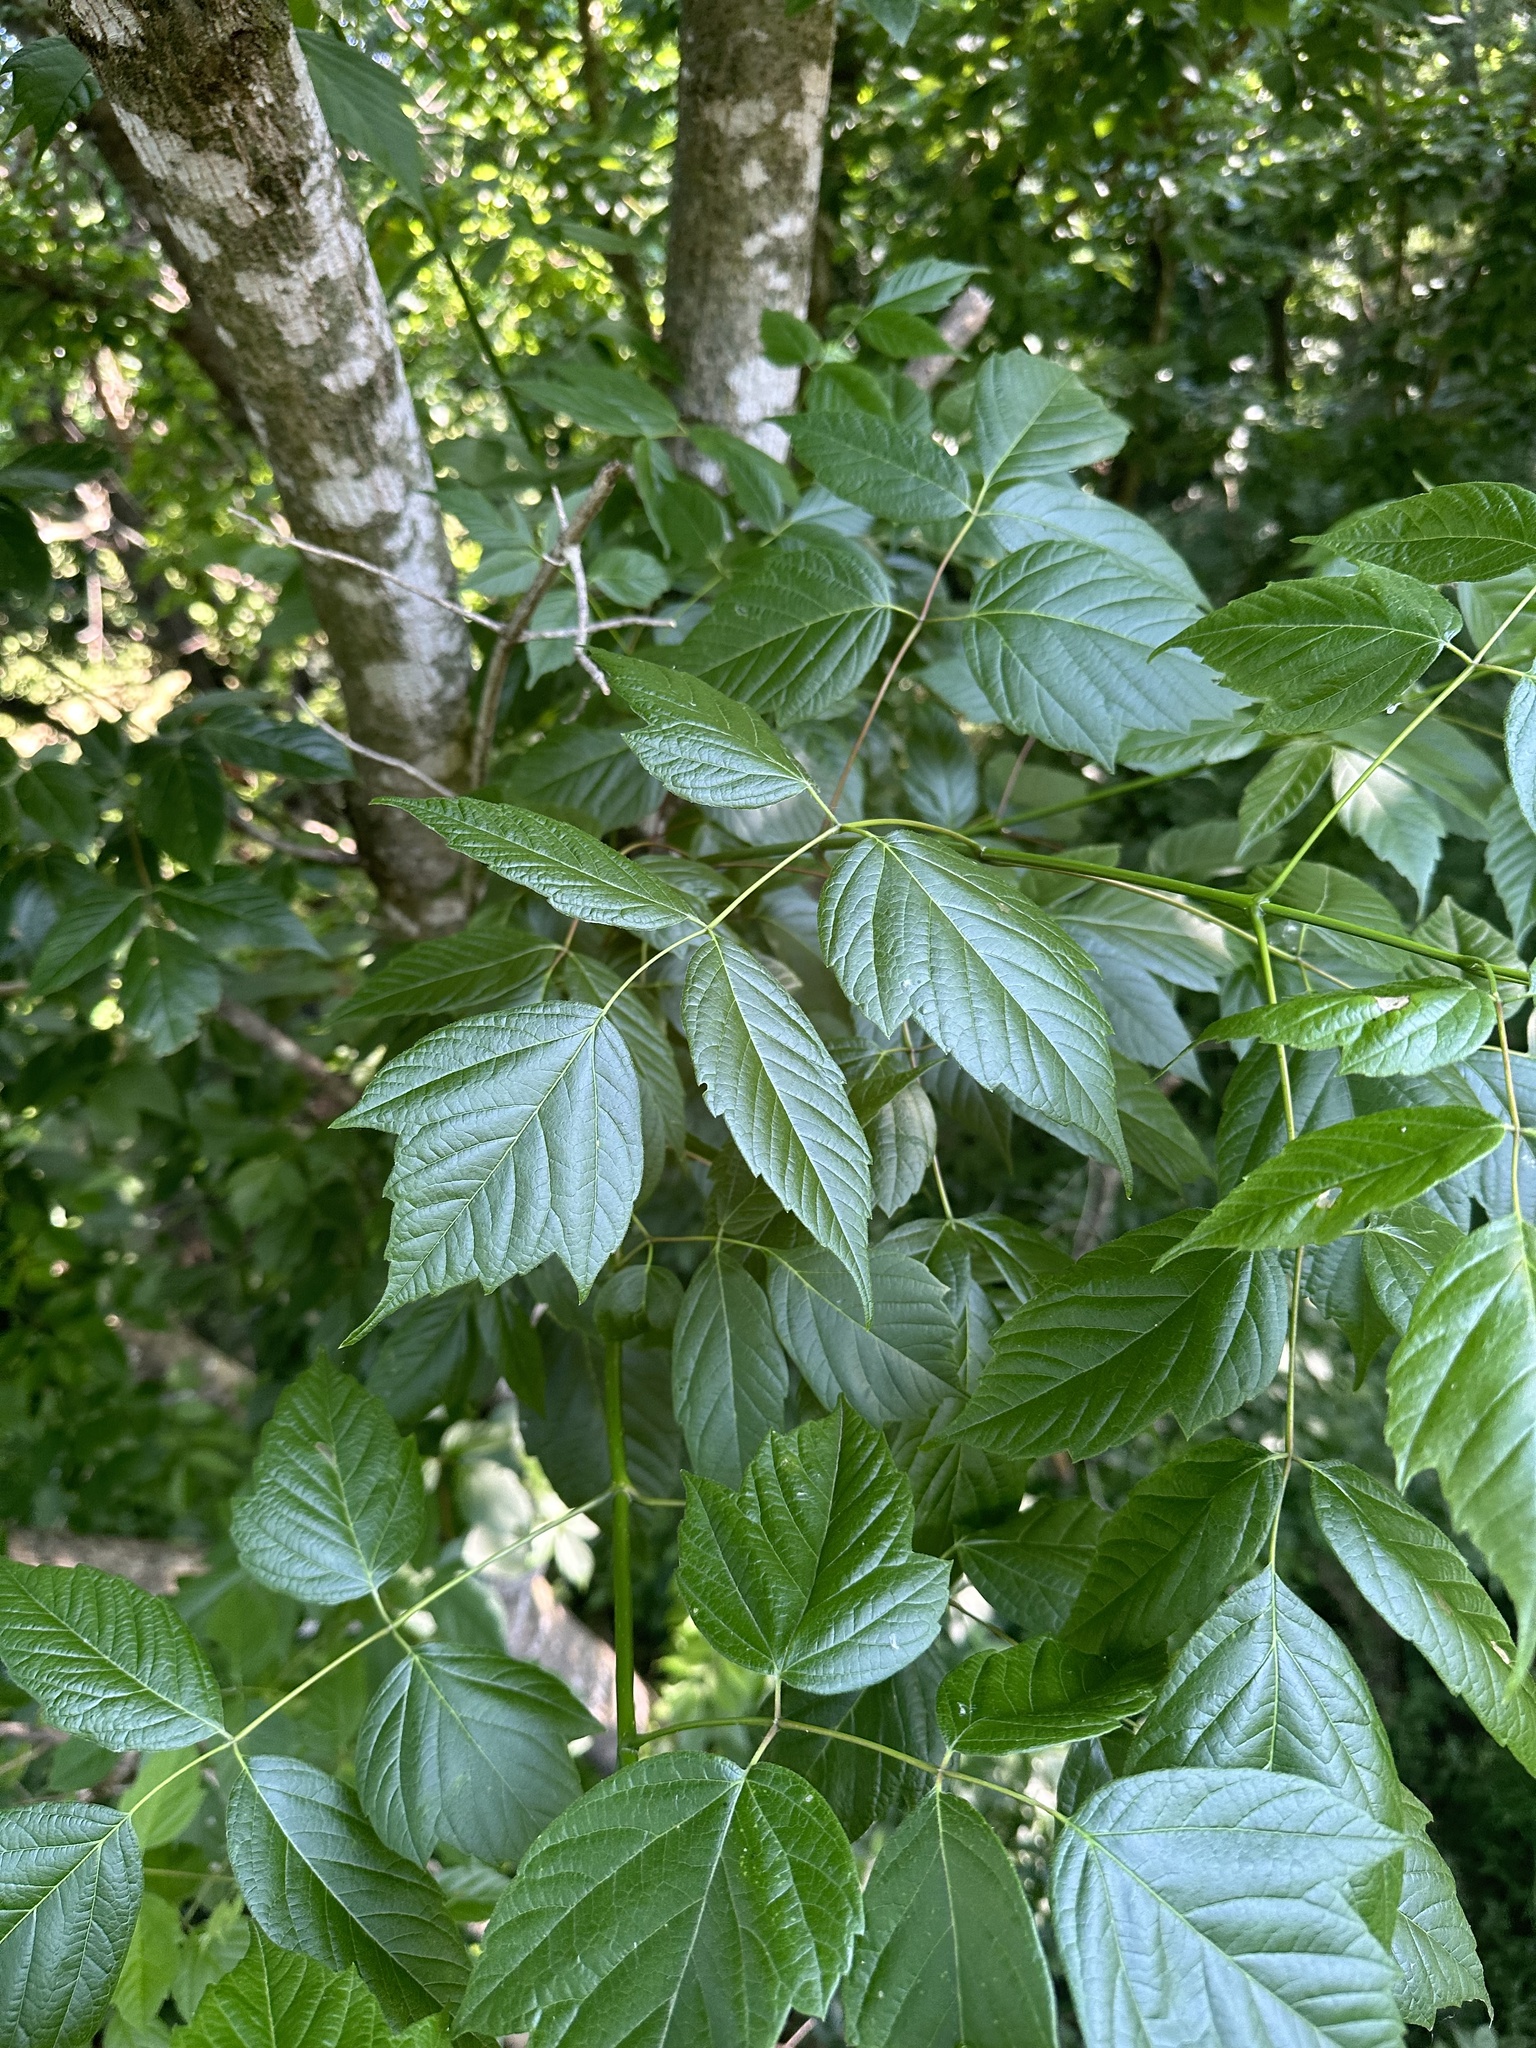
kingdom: Plantae
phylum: Tracheophyta
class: Magnoliopsida
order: Sapindales
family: Sapindaceae
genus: Acer
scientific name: Acer negundo
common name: Ashleaf maple
